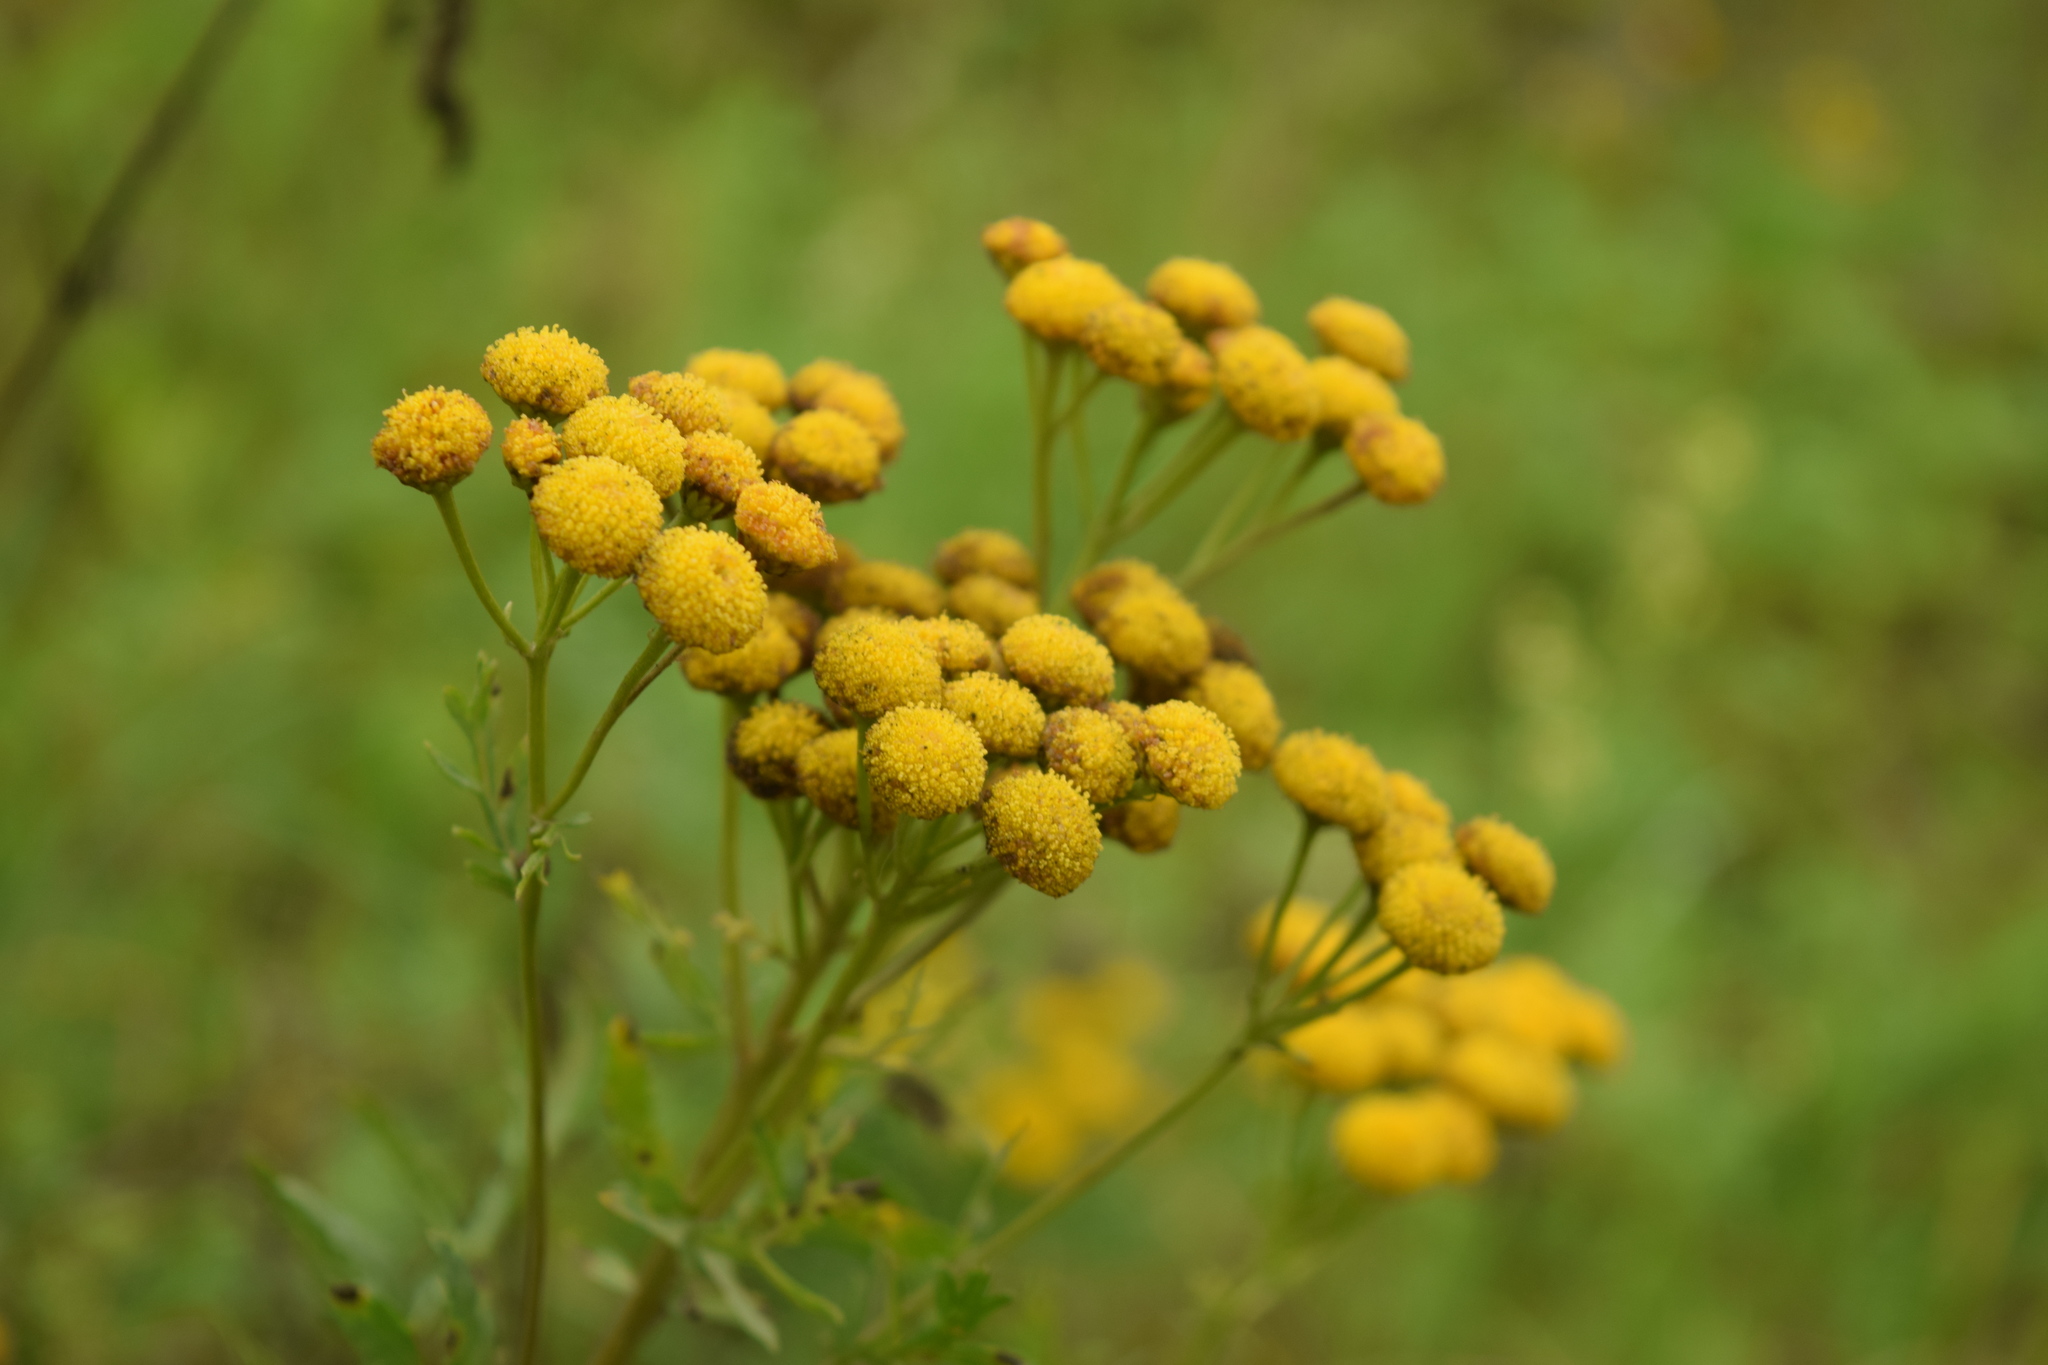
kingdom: Plantae
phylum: Tracheophyta
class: Magnoliopsida
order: Asterales
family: Asteraceae
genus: Tanacetum
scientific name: Tanacetum vulgare
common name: Common tansy
